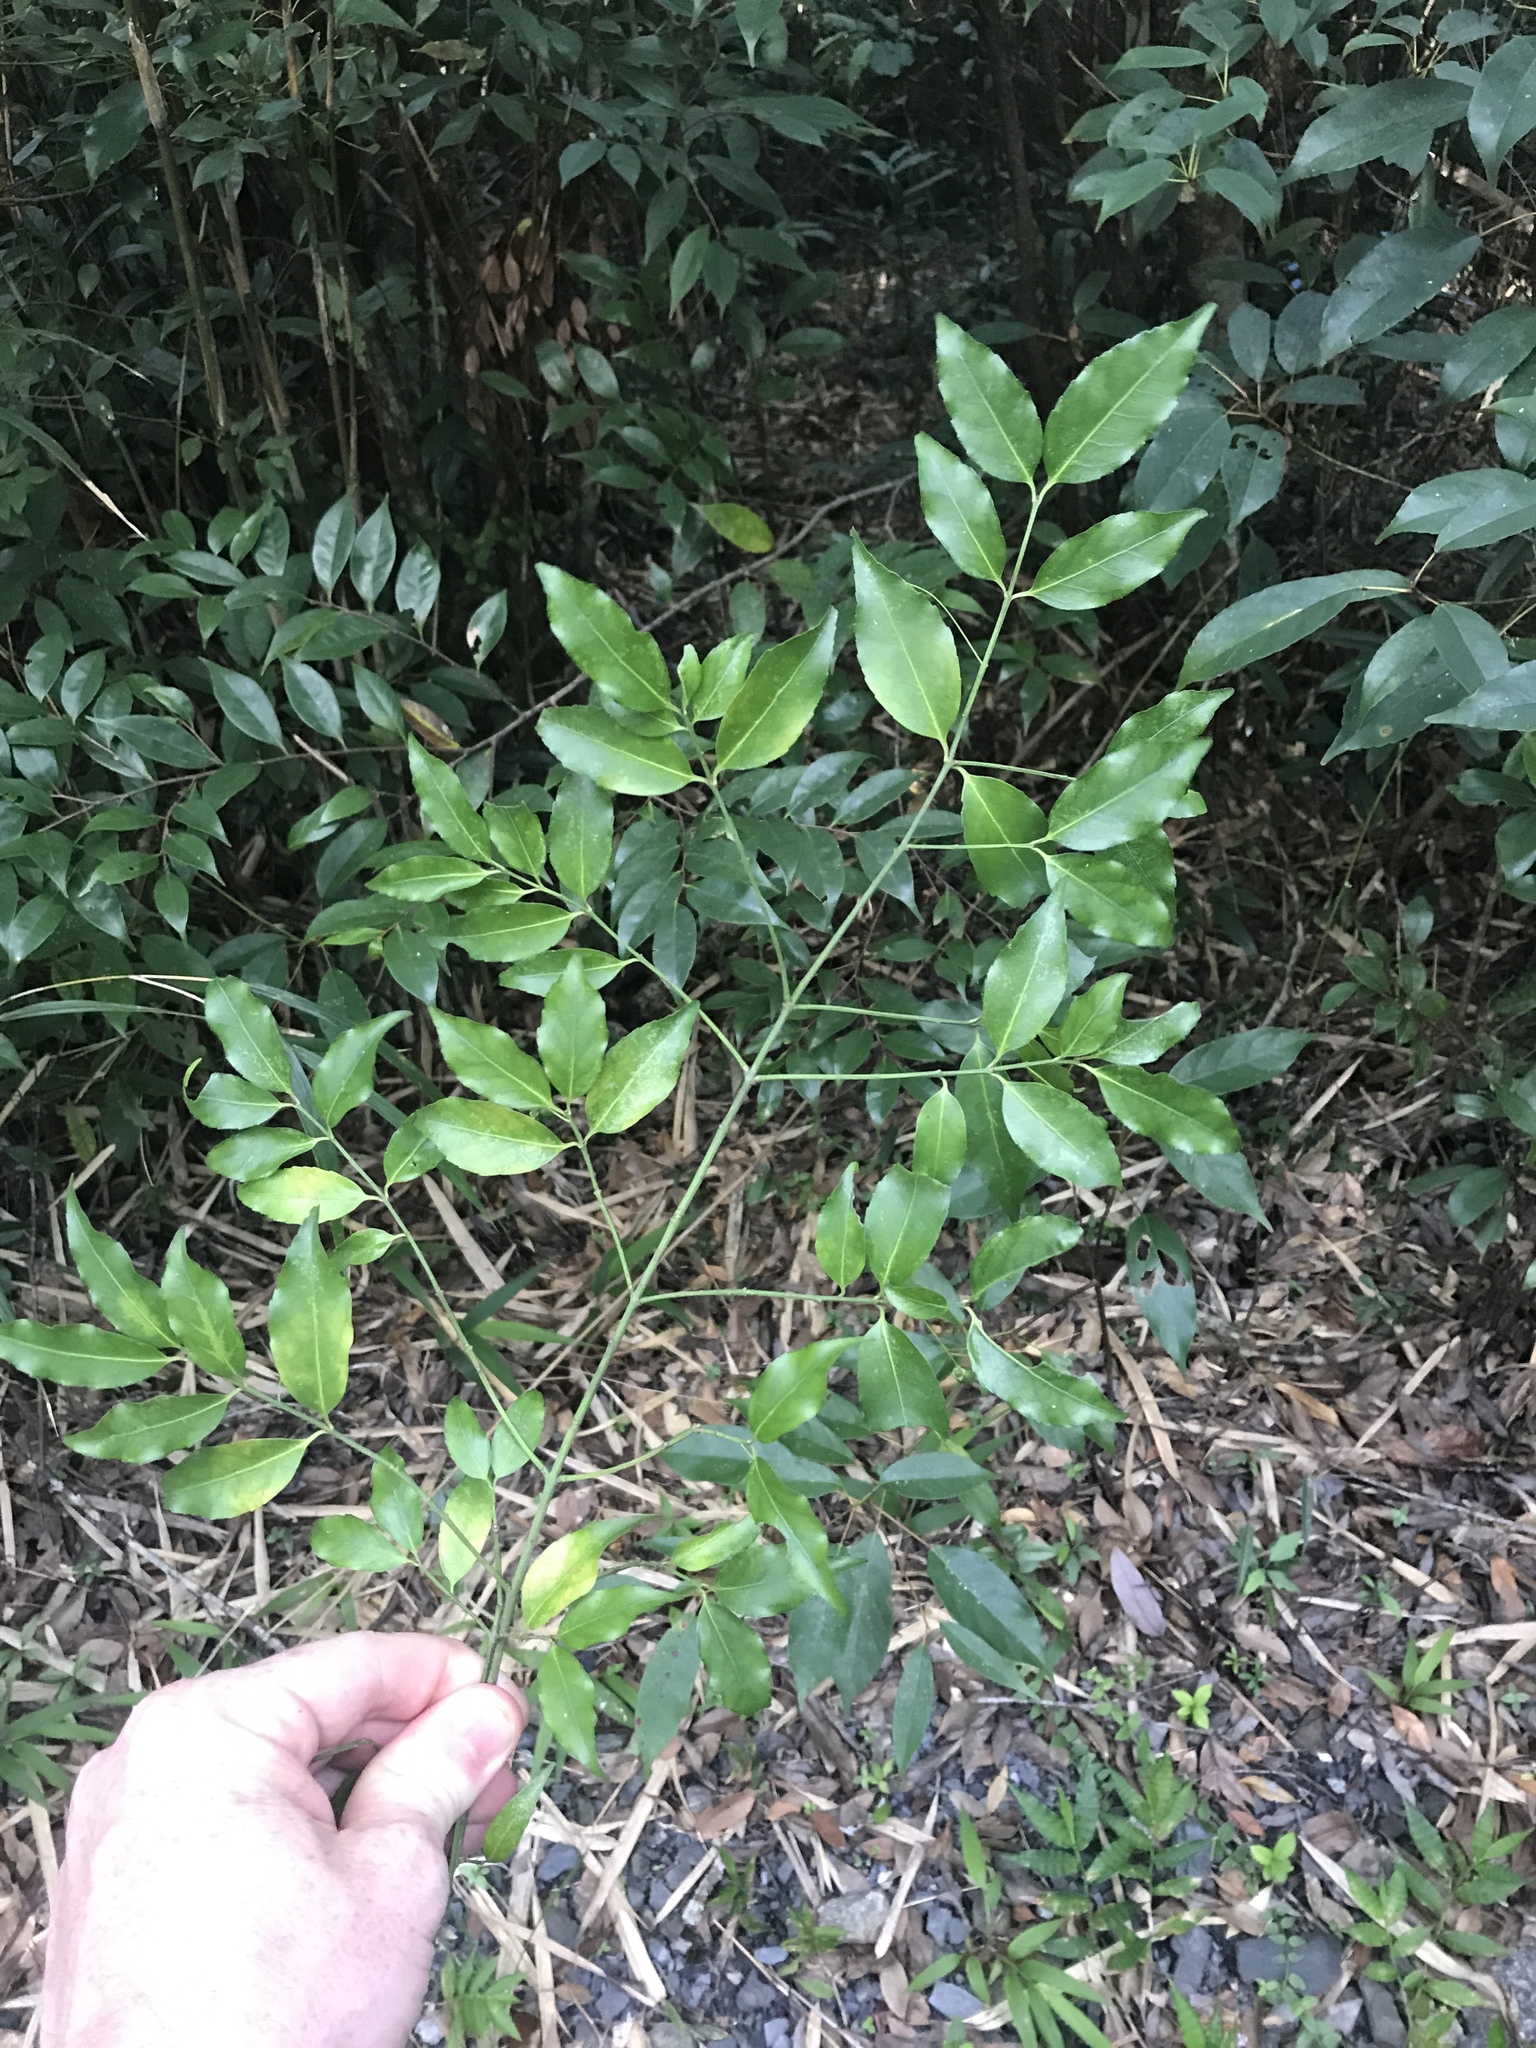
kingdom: Plantae
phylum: Tracheophyta
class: Magnoliopsida
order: Celastrales
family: Celastraceae
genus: Euonymus
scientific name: Euonymus lutchuensis
